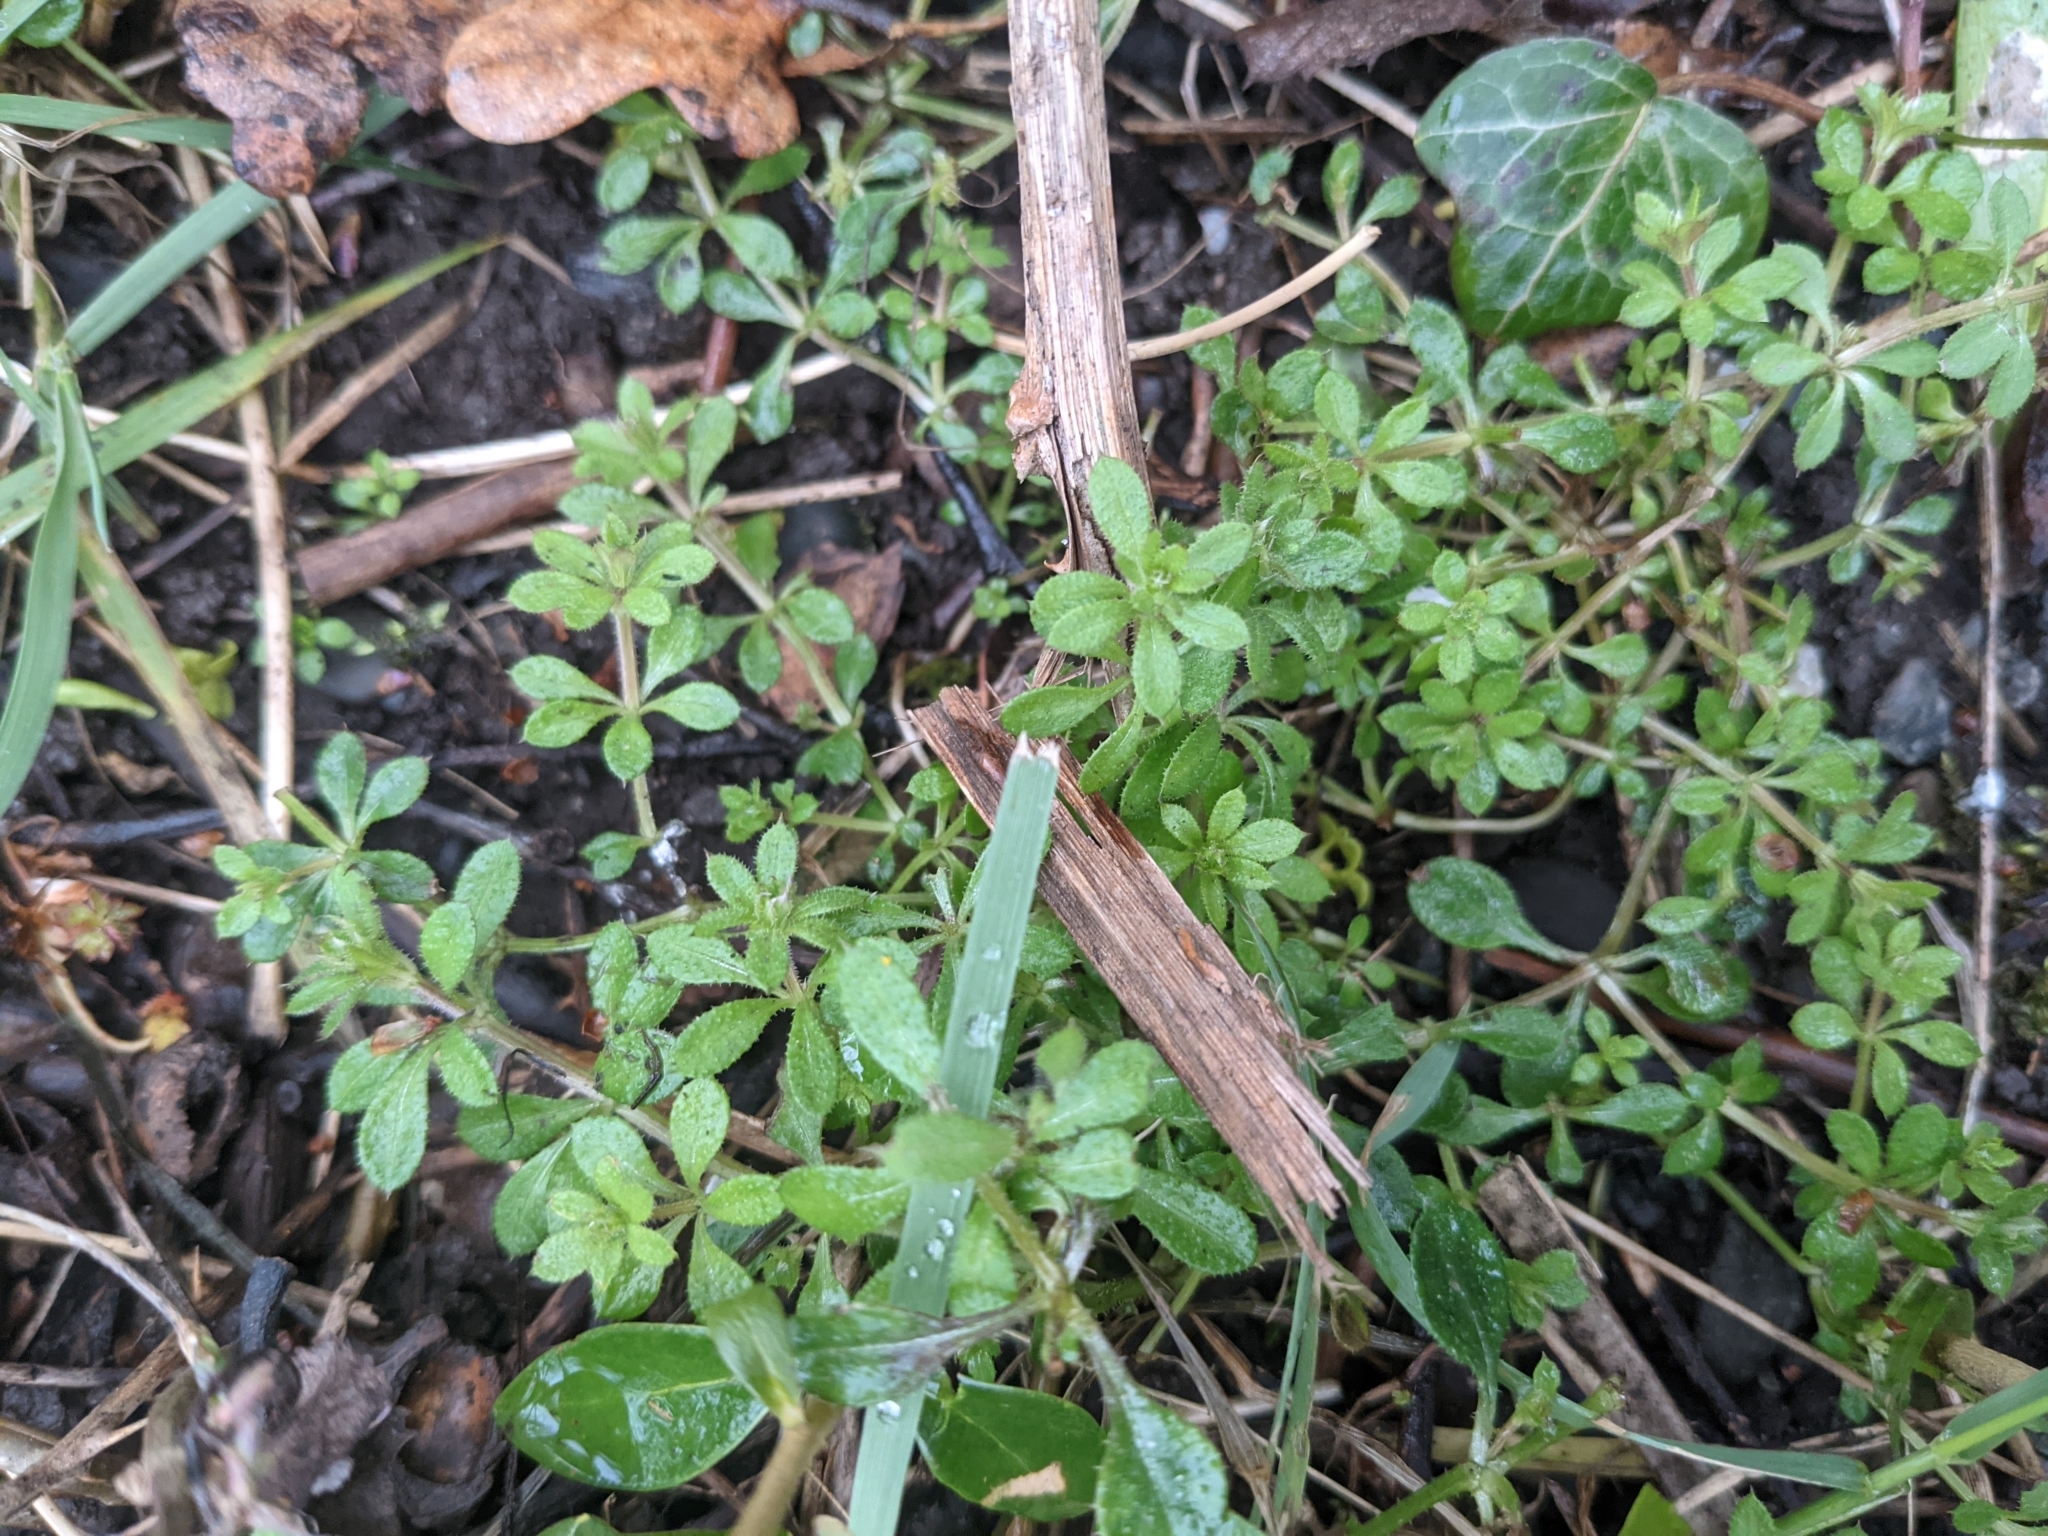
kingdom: Plantae
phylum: Tracheophyta
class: Magnoliopsida
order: Gentianales
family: Rubiaceae
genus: Galium
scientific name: Galium aparine
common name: Cleavers
